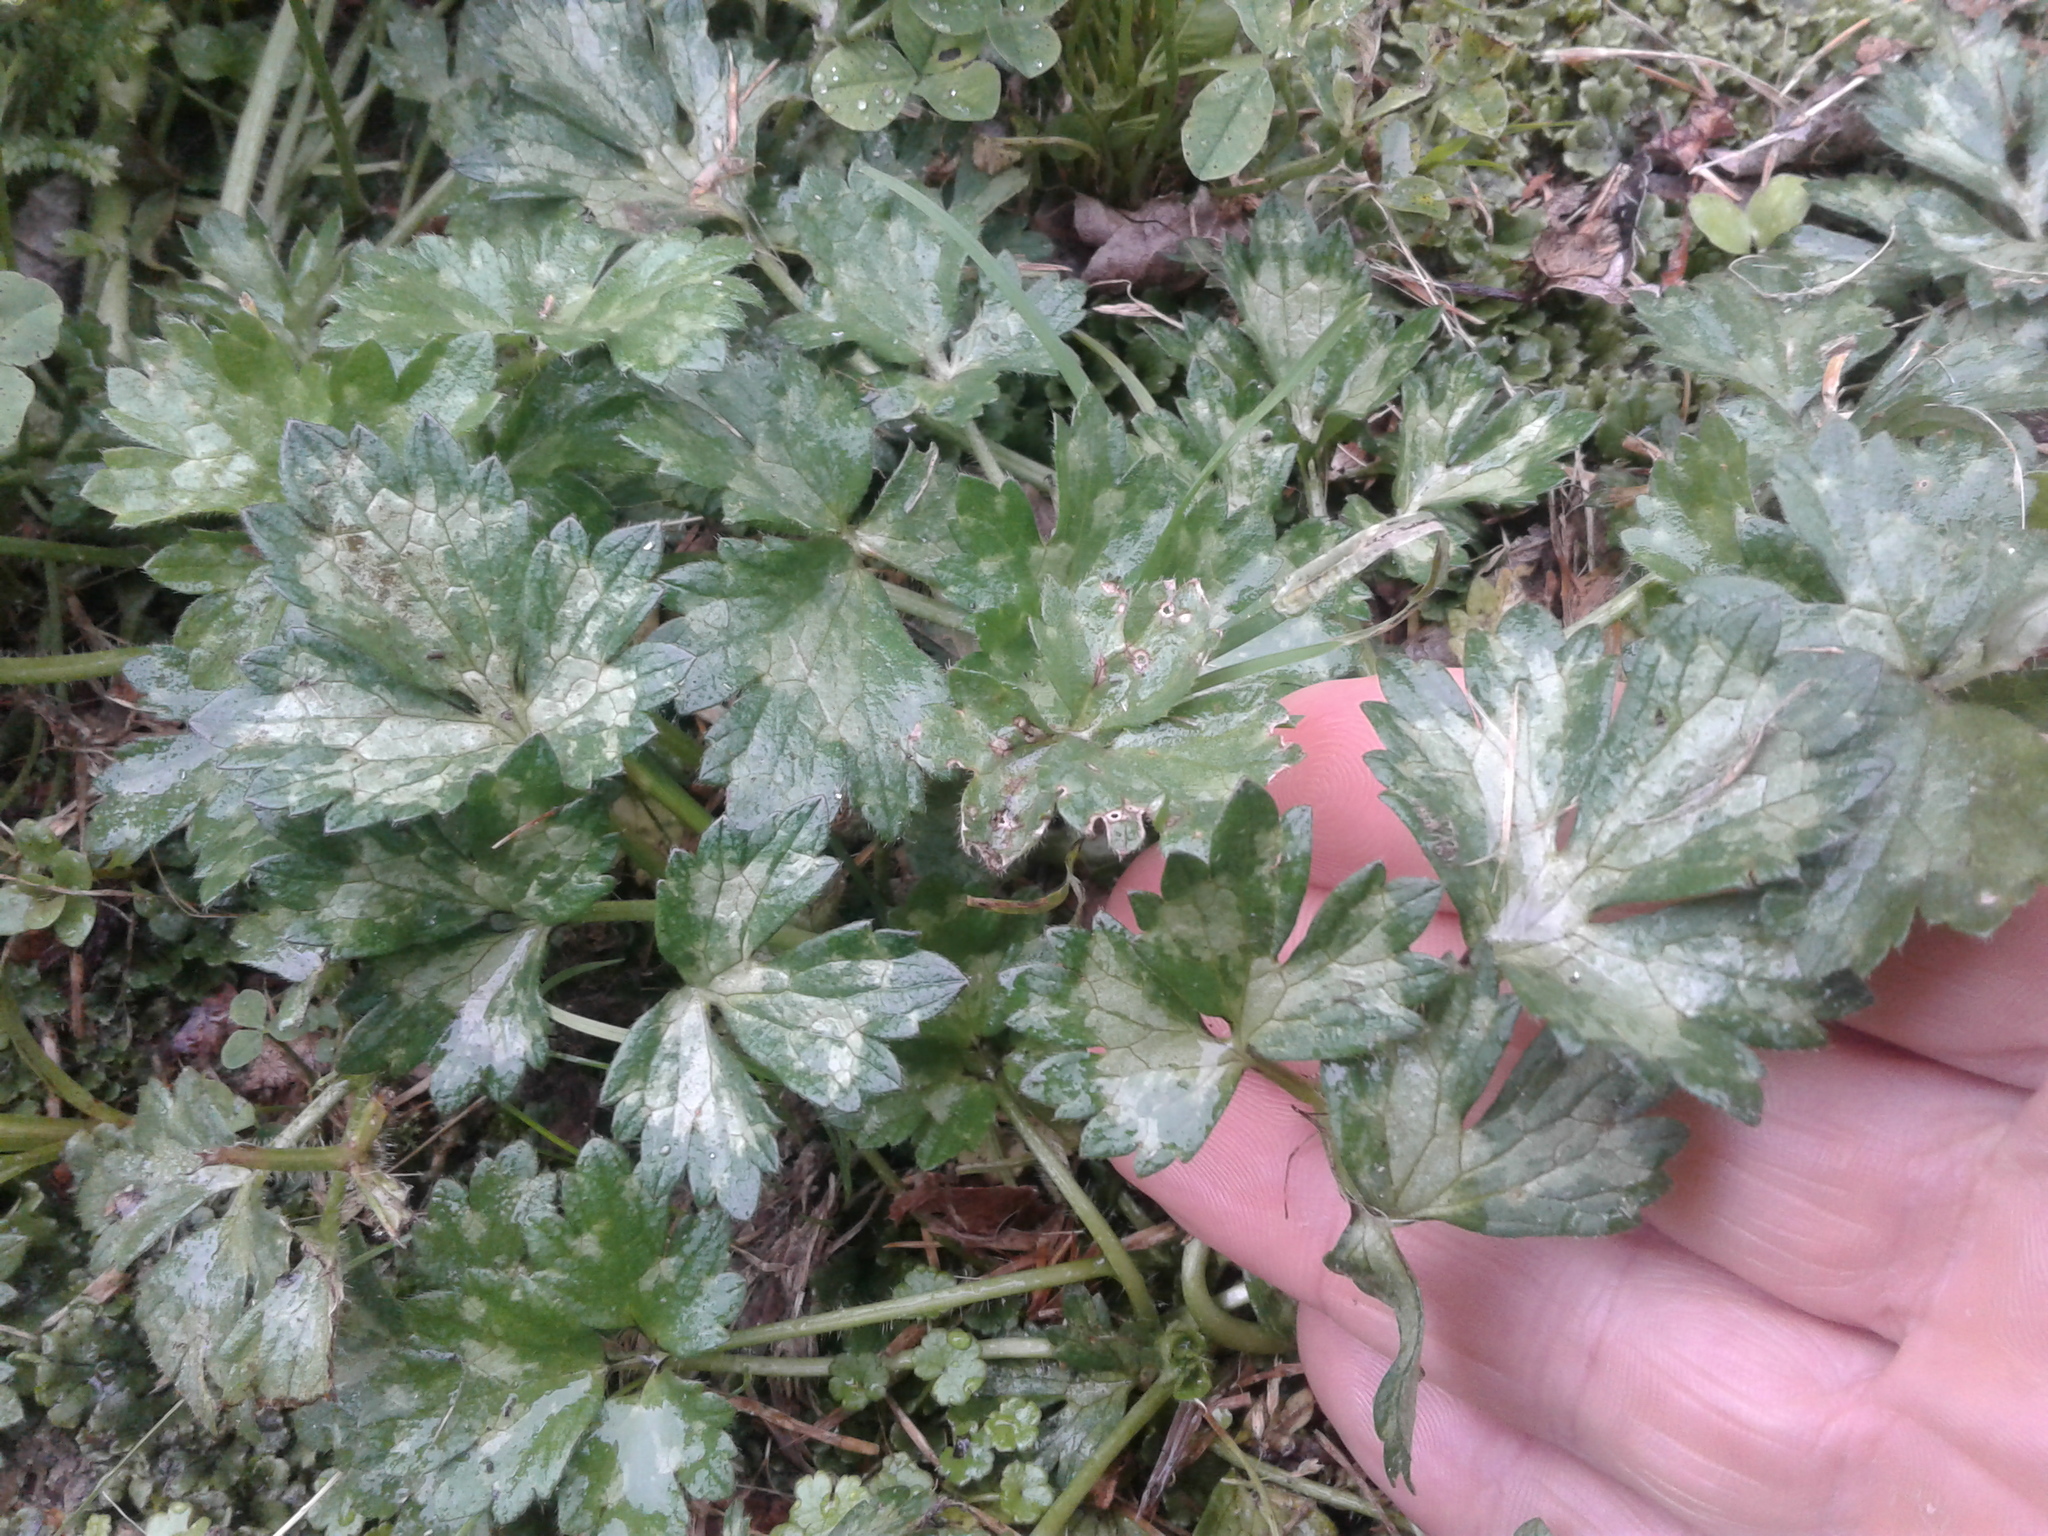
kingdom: Plantae
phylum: Tracheophyta
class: Magnoliopsida
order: Ranunculales
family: Ranunculaceae
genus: Ranunculus
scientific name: Ranunculus repens
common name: Creeping buttercup
